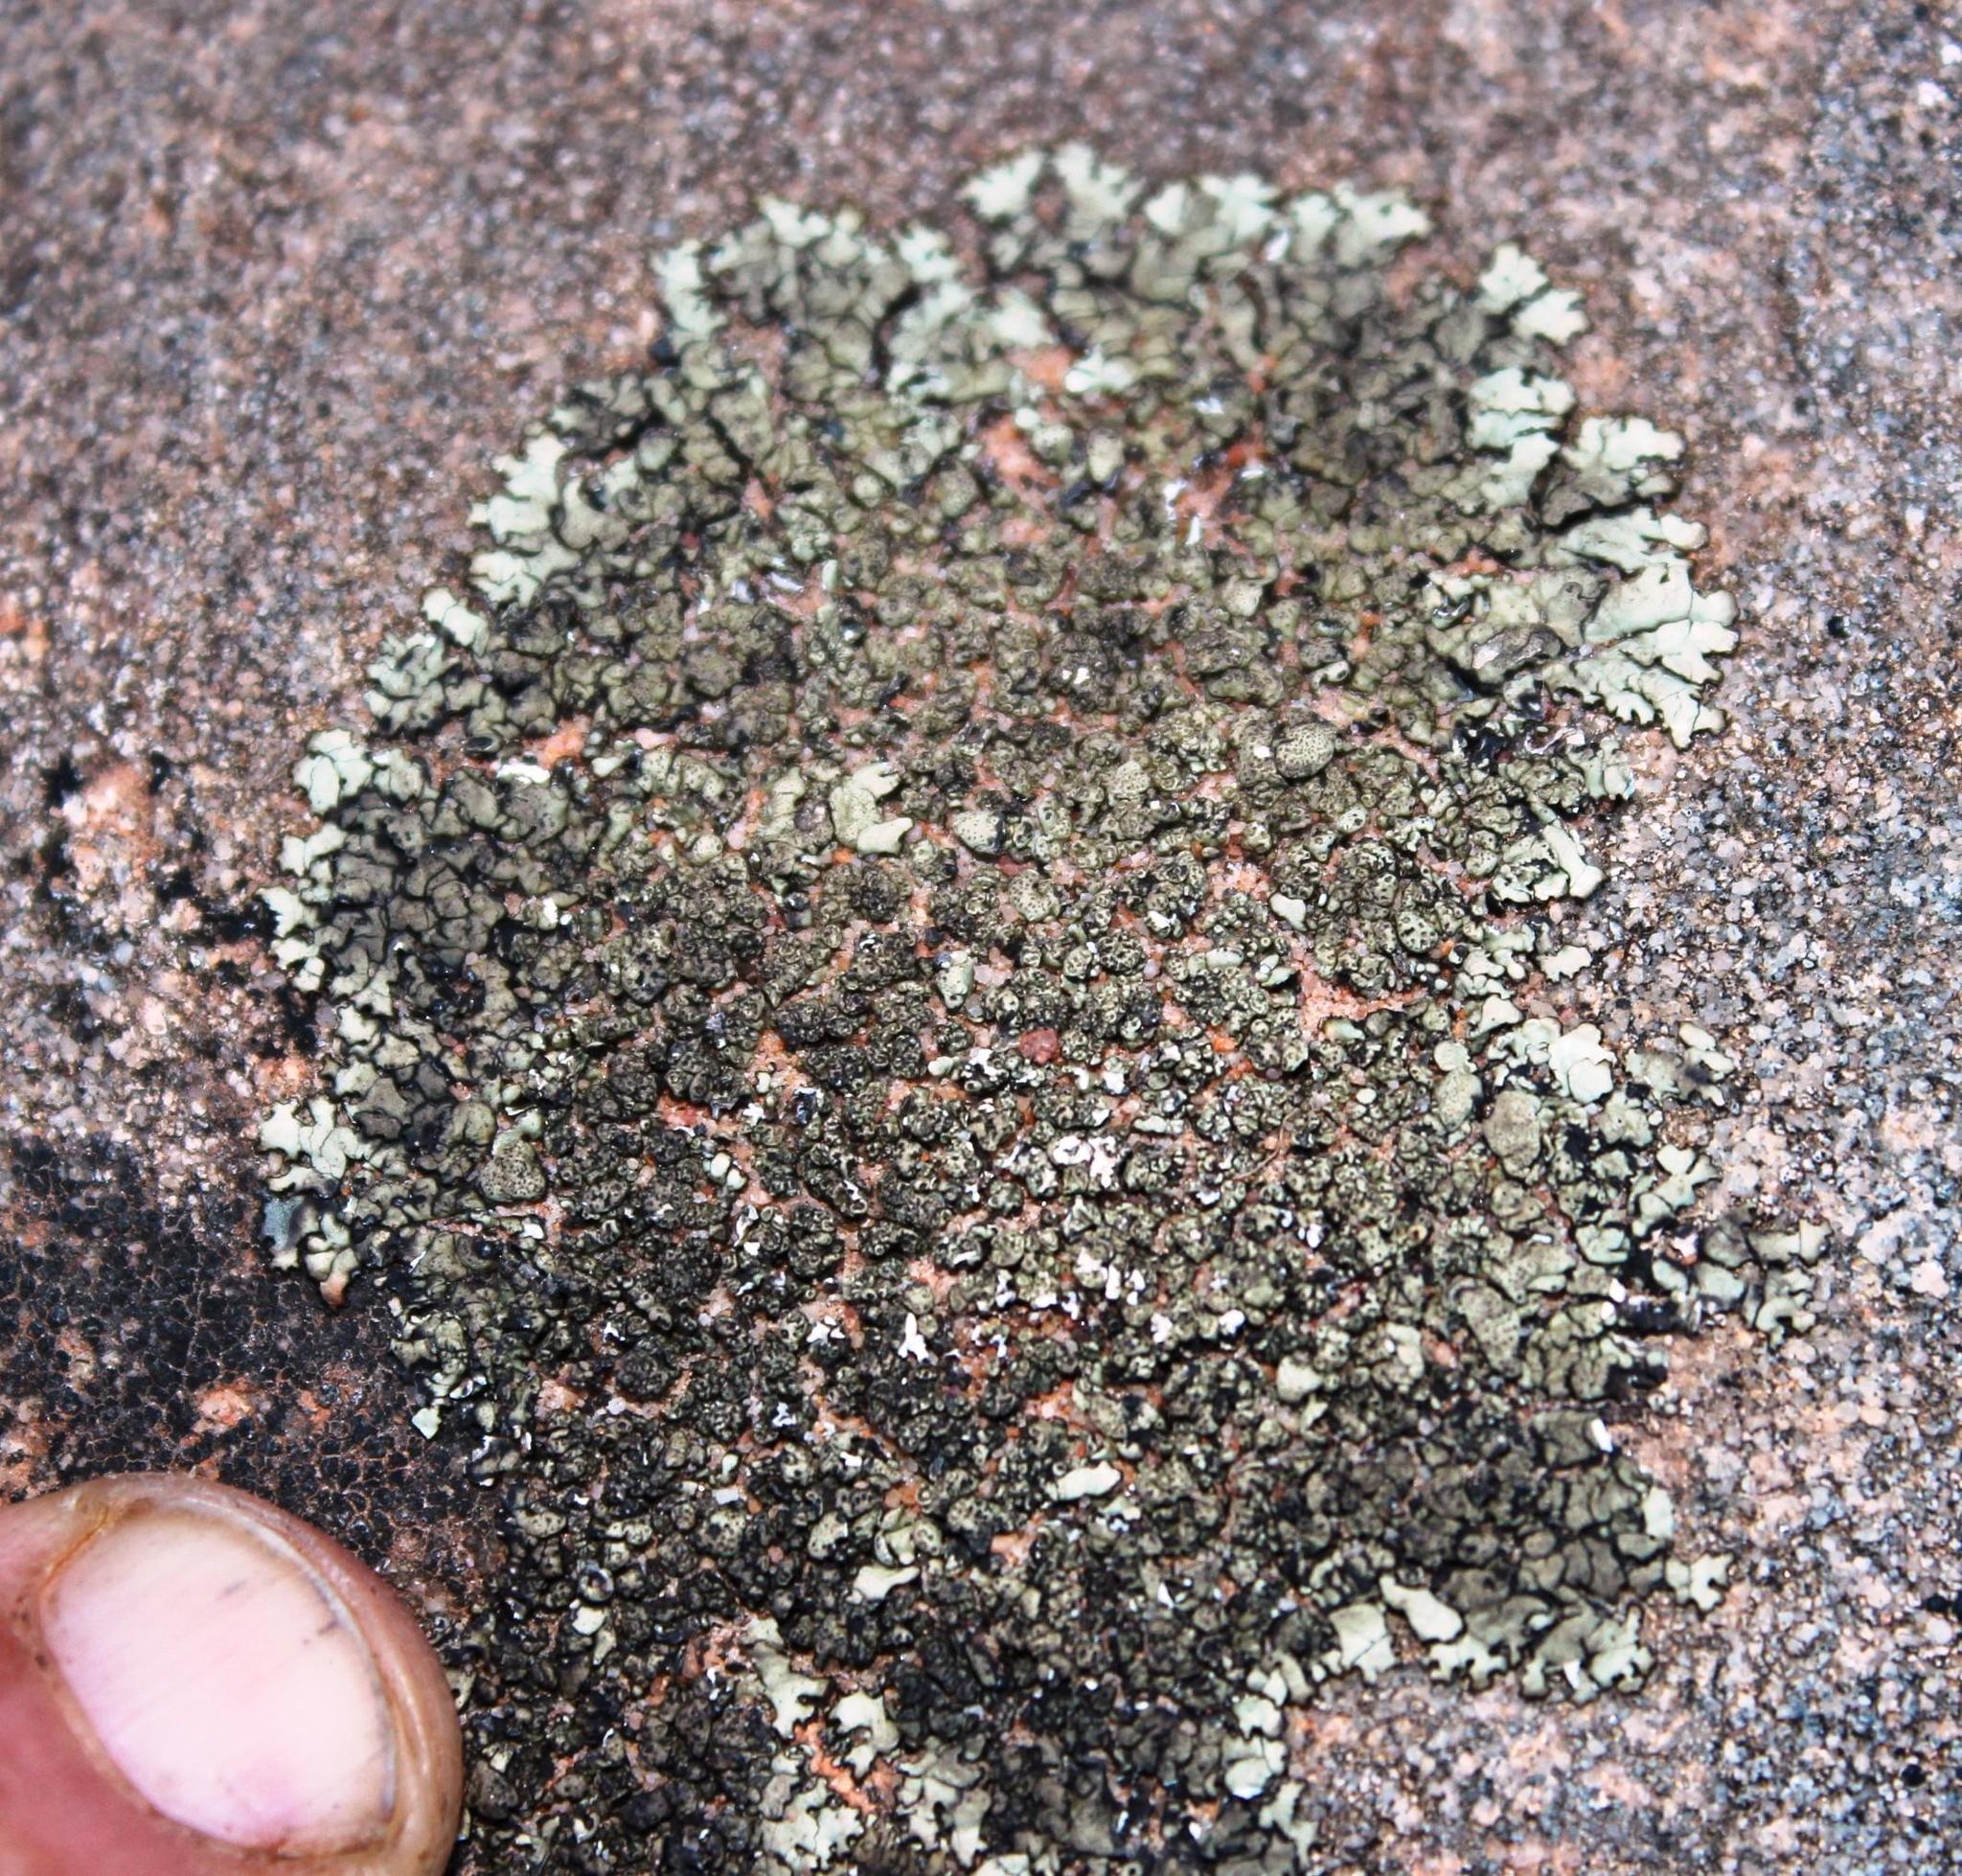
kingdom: Fungi
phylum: Ascomycota
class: Lecanoromycetes
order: Lecanorales
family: Parmeliaceae
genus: Punctelia
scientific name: Punctelia oxyspora
